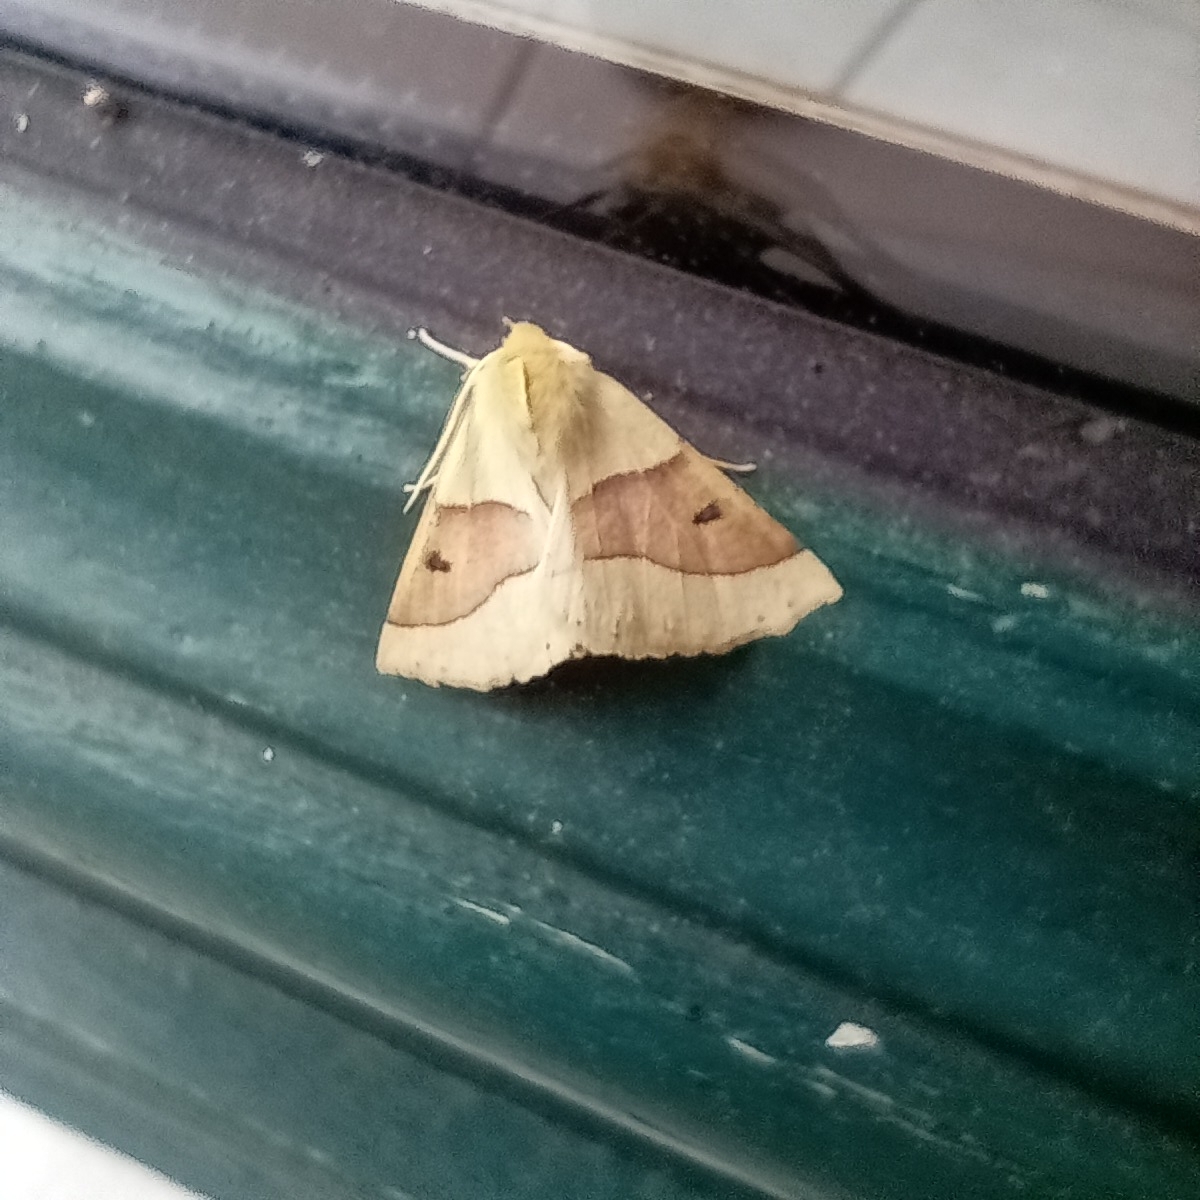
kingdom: Animalia
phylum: Arthropoda
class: Insecta
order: Lepidoptera
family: Geometridae
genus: Crocallis
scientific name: Crocallis elinguaria
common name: Scalloped oak
